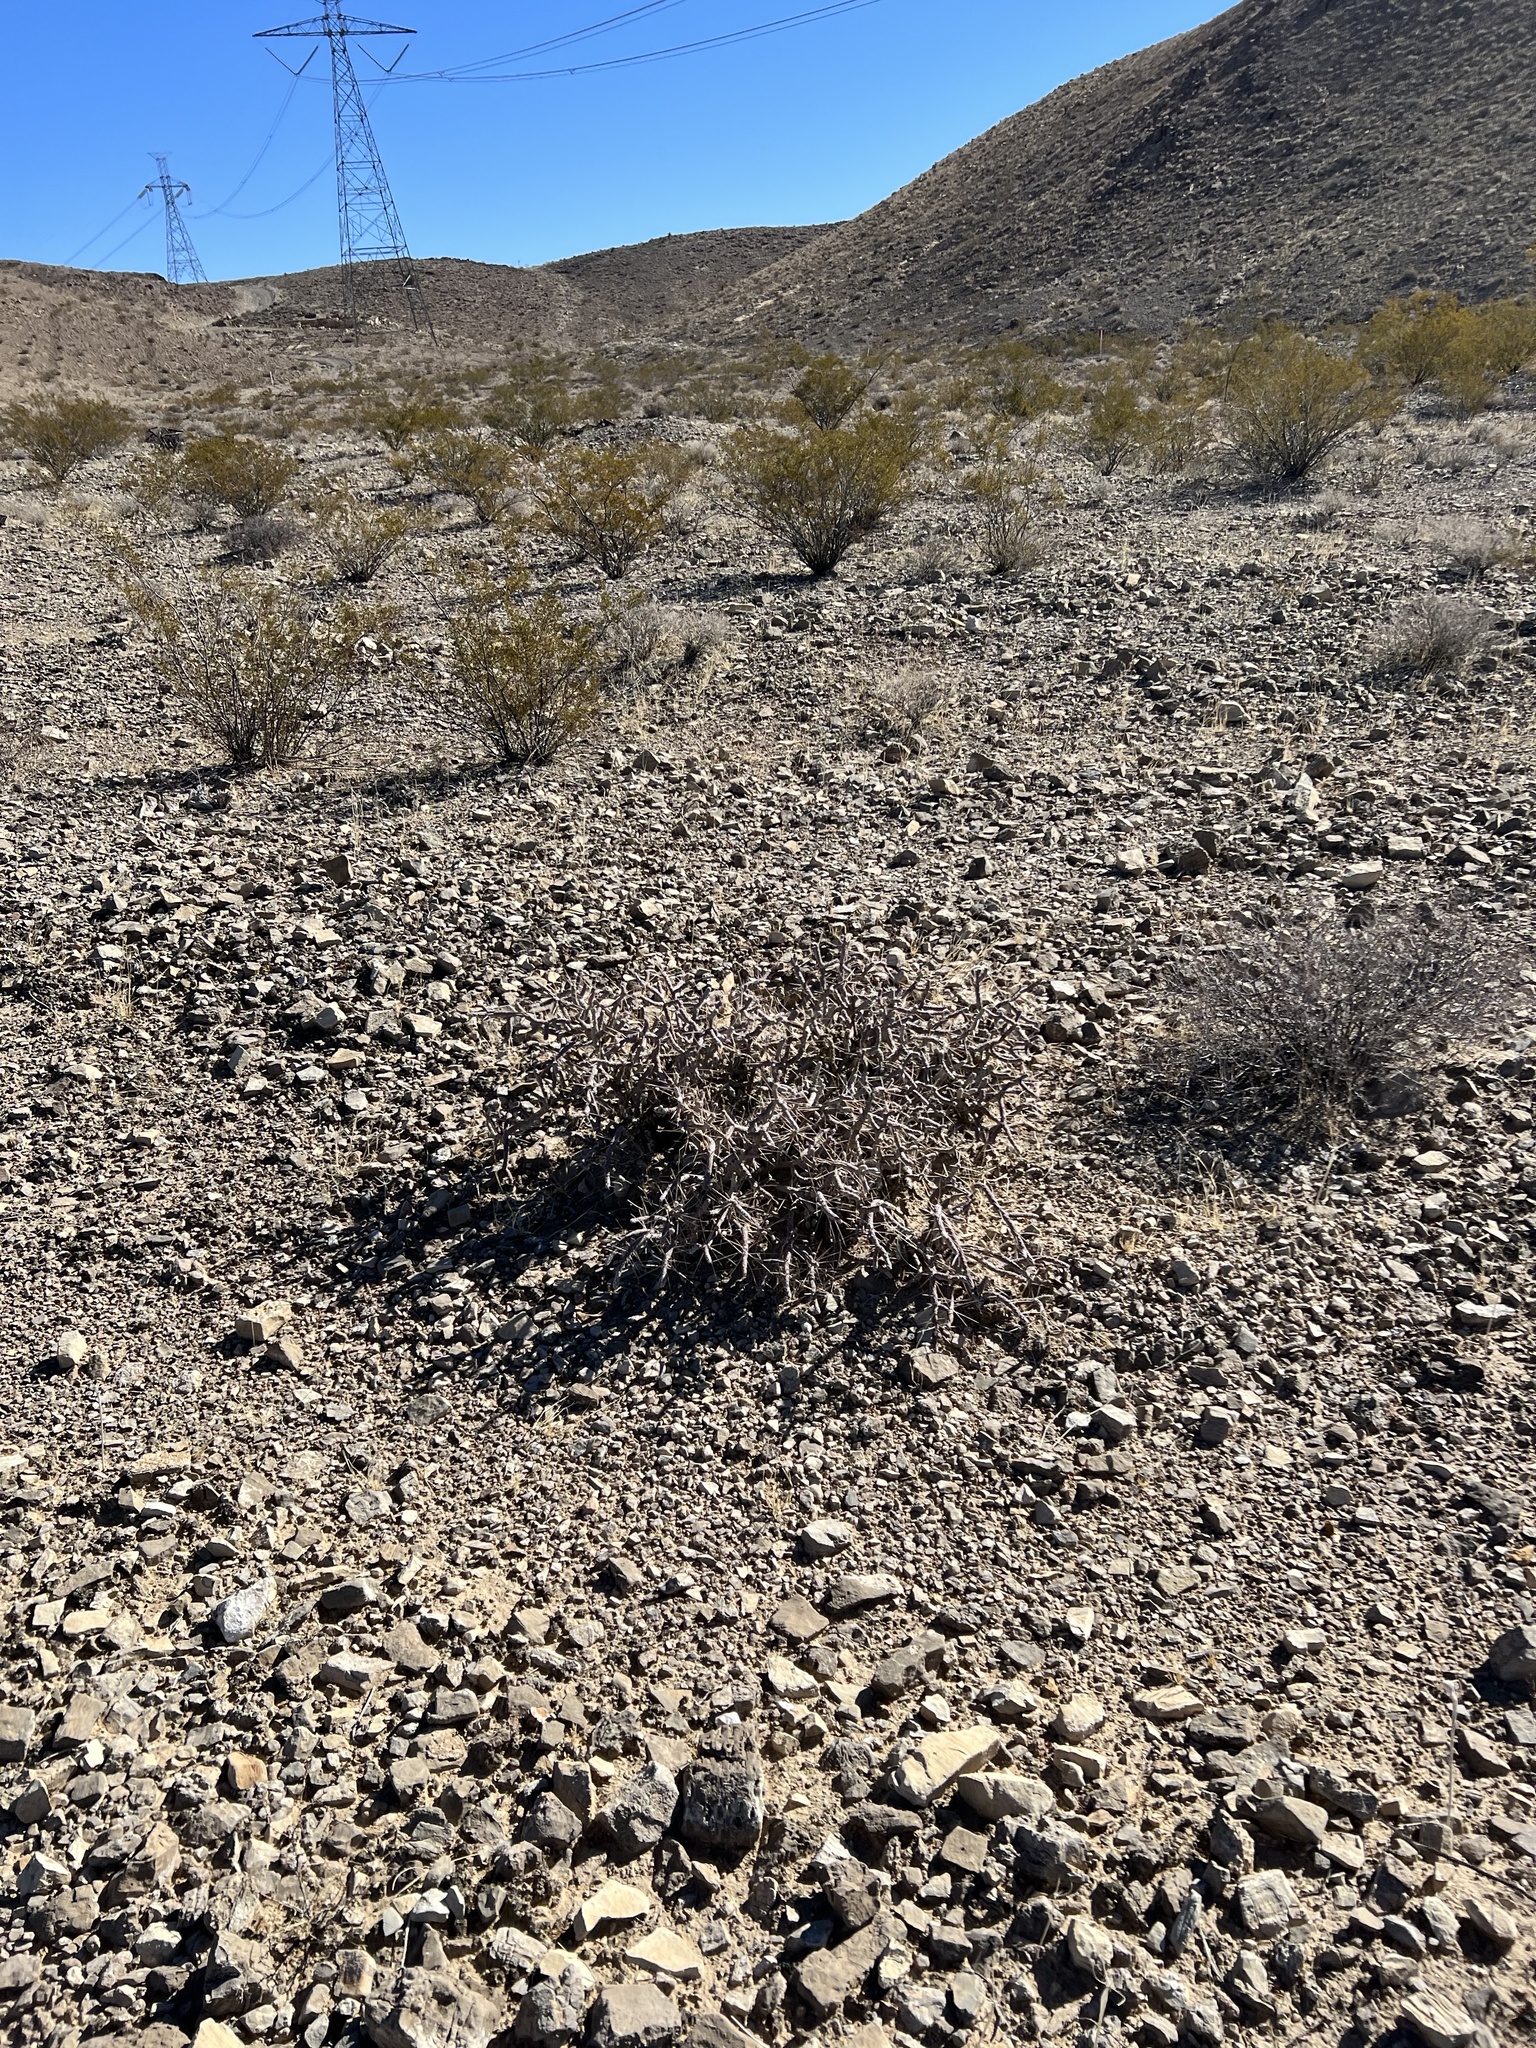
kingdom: Plantae
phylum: Tracheophyta
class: Magnoliopsida
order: Caryophyllales
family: Cactaceae
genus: Cylindropuntia
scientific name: Cylindropuntia ramosissima
